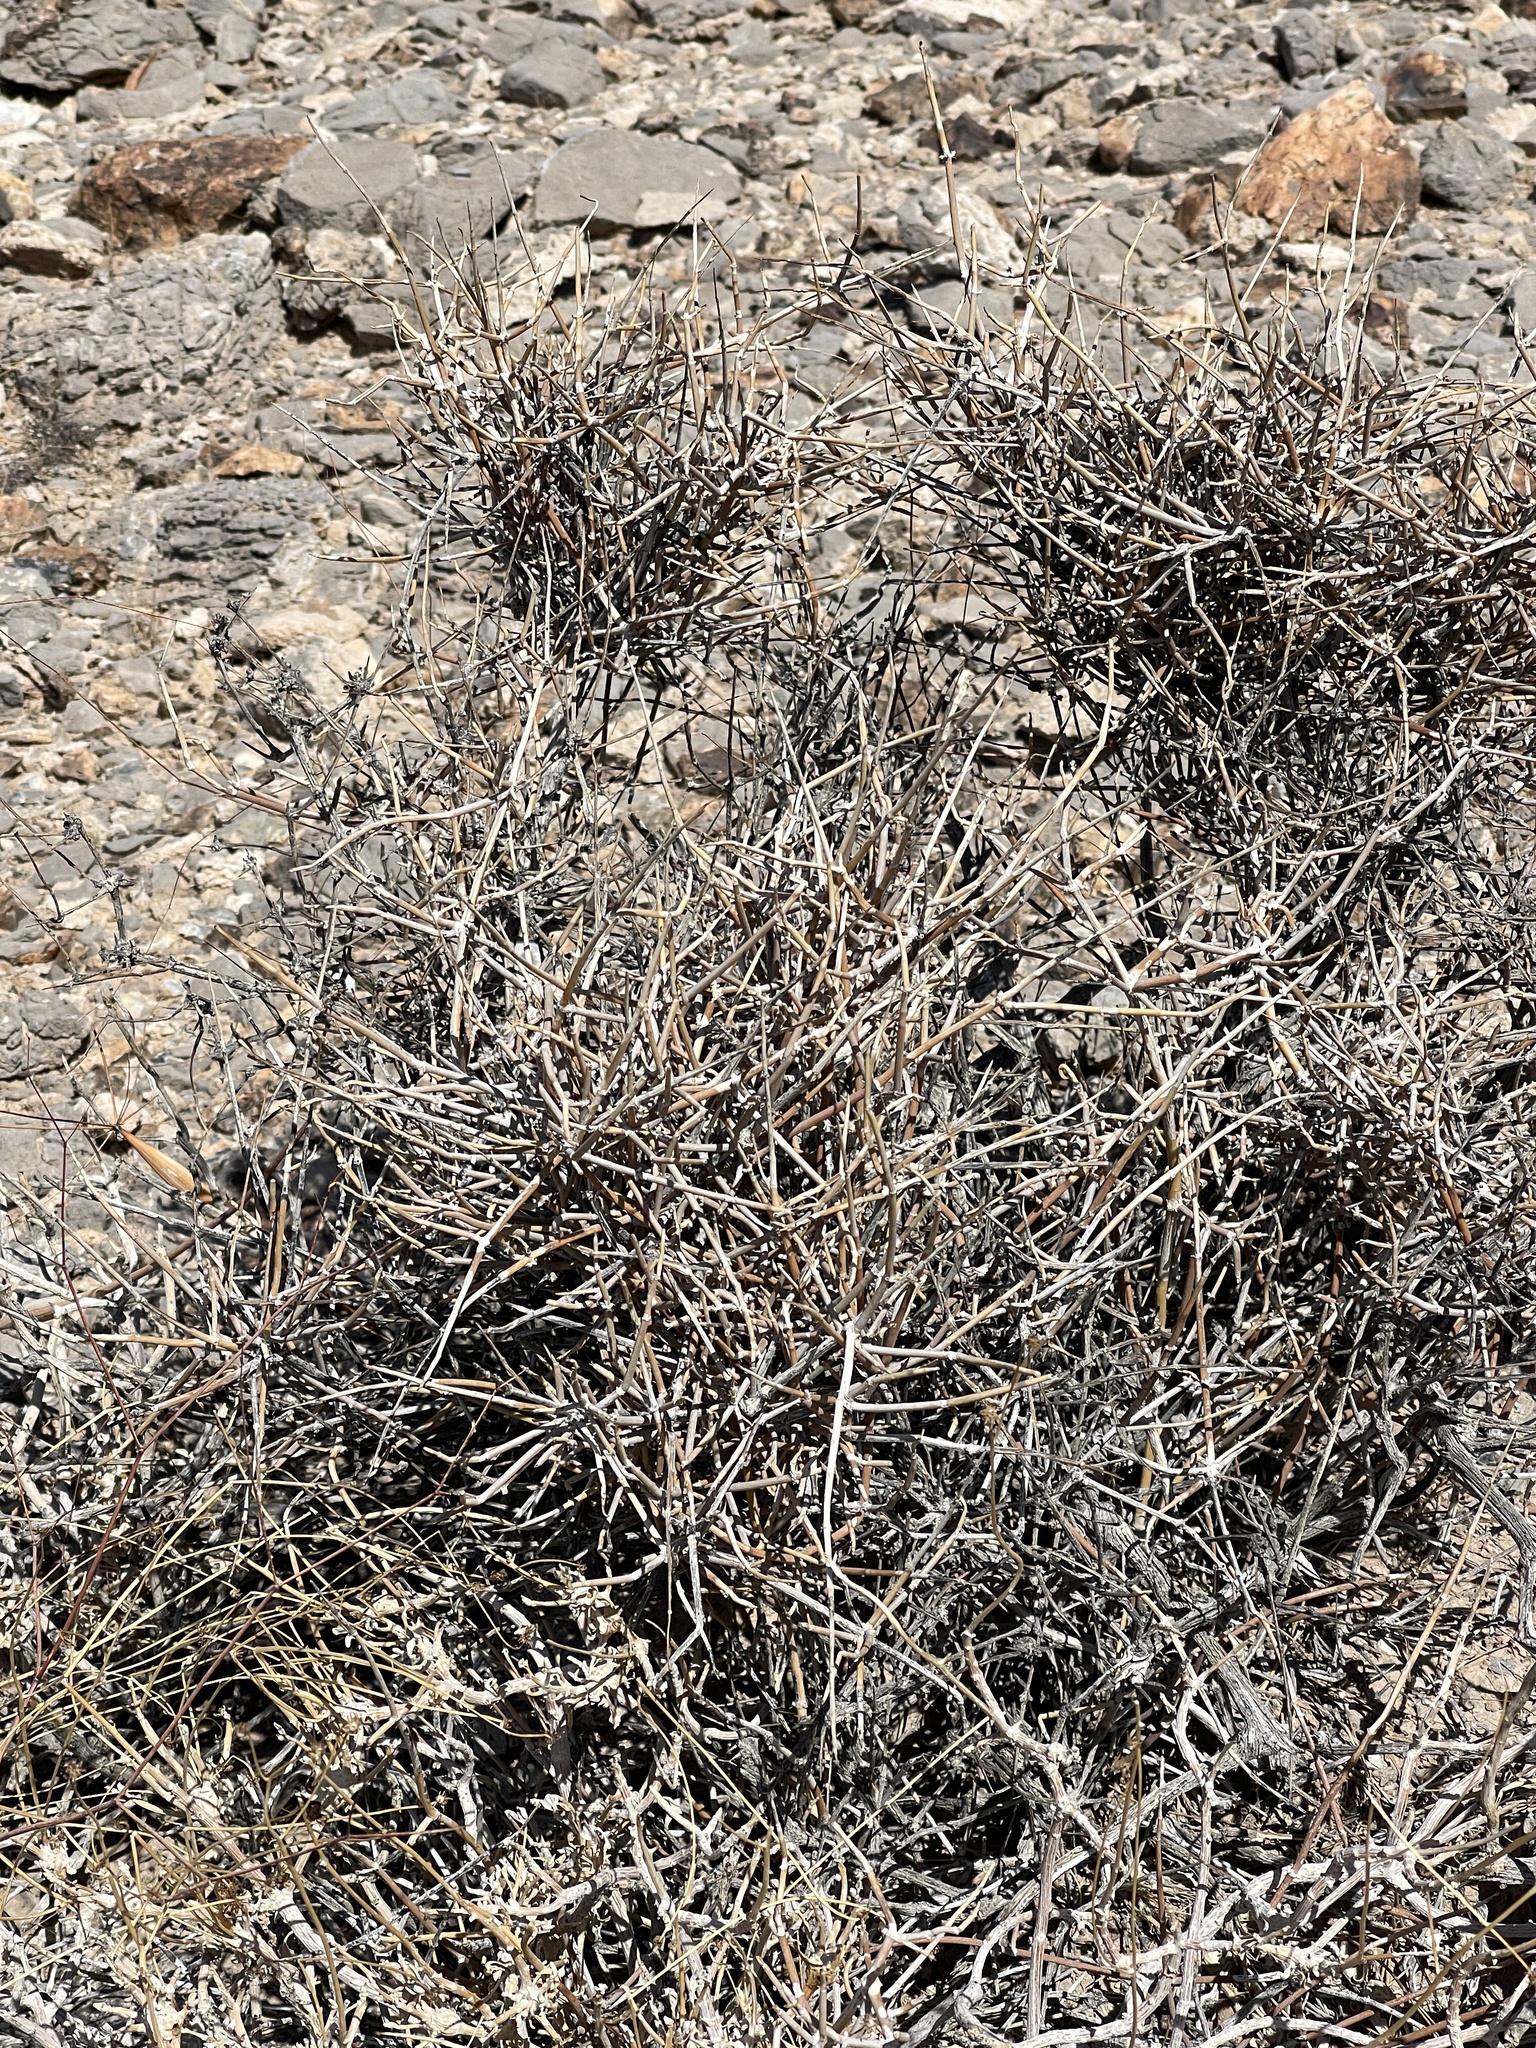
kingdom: Plantae
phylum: Tracheophyta
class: Gnetopsida
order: Ephedrales
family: Ephedraceae
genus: Ephedra
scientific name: Ephedra nevadensis
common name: Gray ephedra
